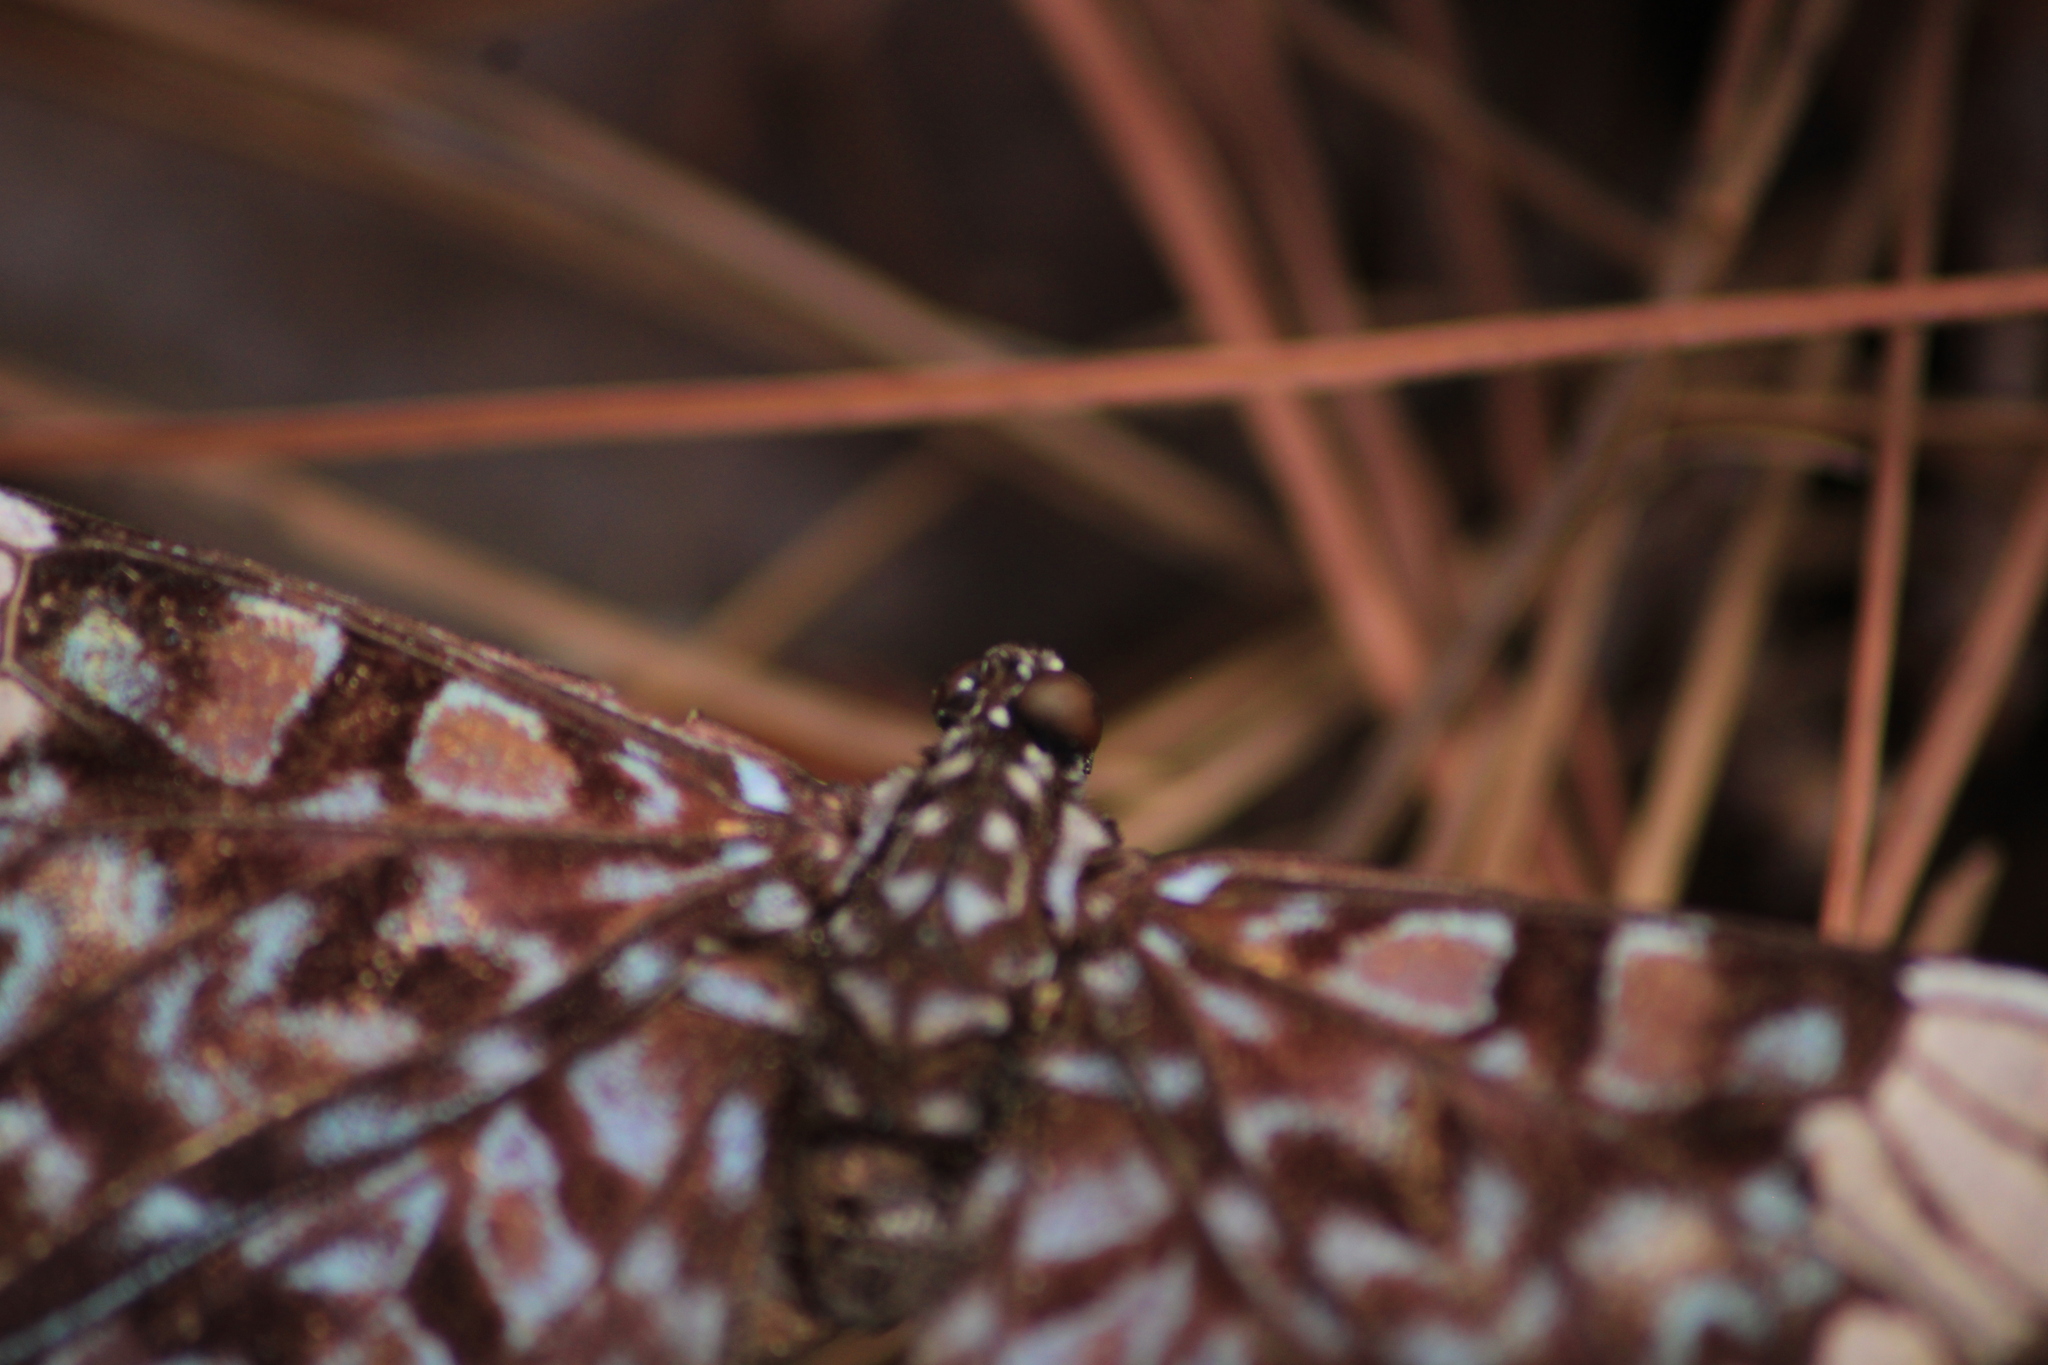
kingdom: Animalia
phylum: Arthropoda
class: Insecta
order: Lepidoptera
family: Nymphalidae
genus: Hamadryas
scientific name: Hamadryas amphinome
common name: Red cracker
